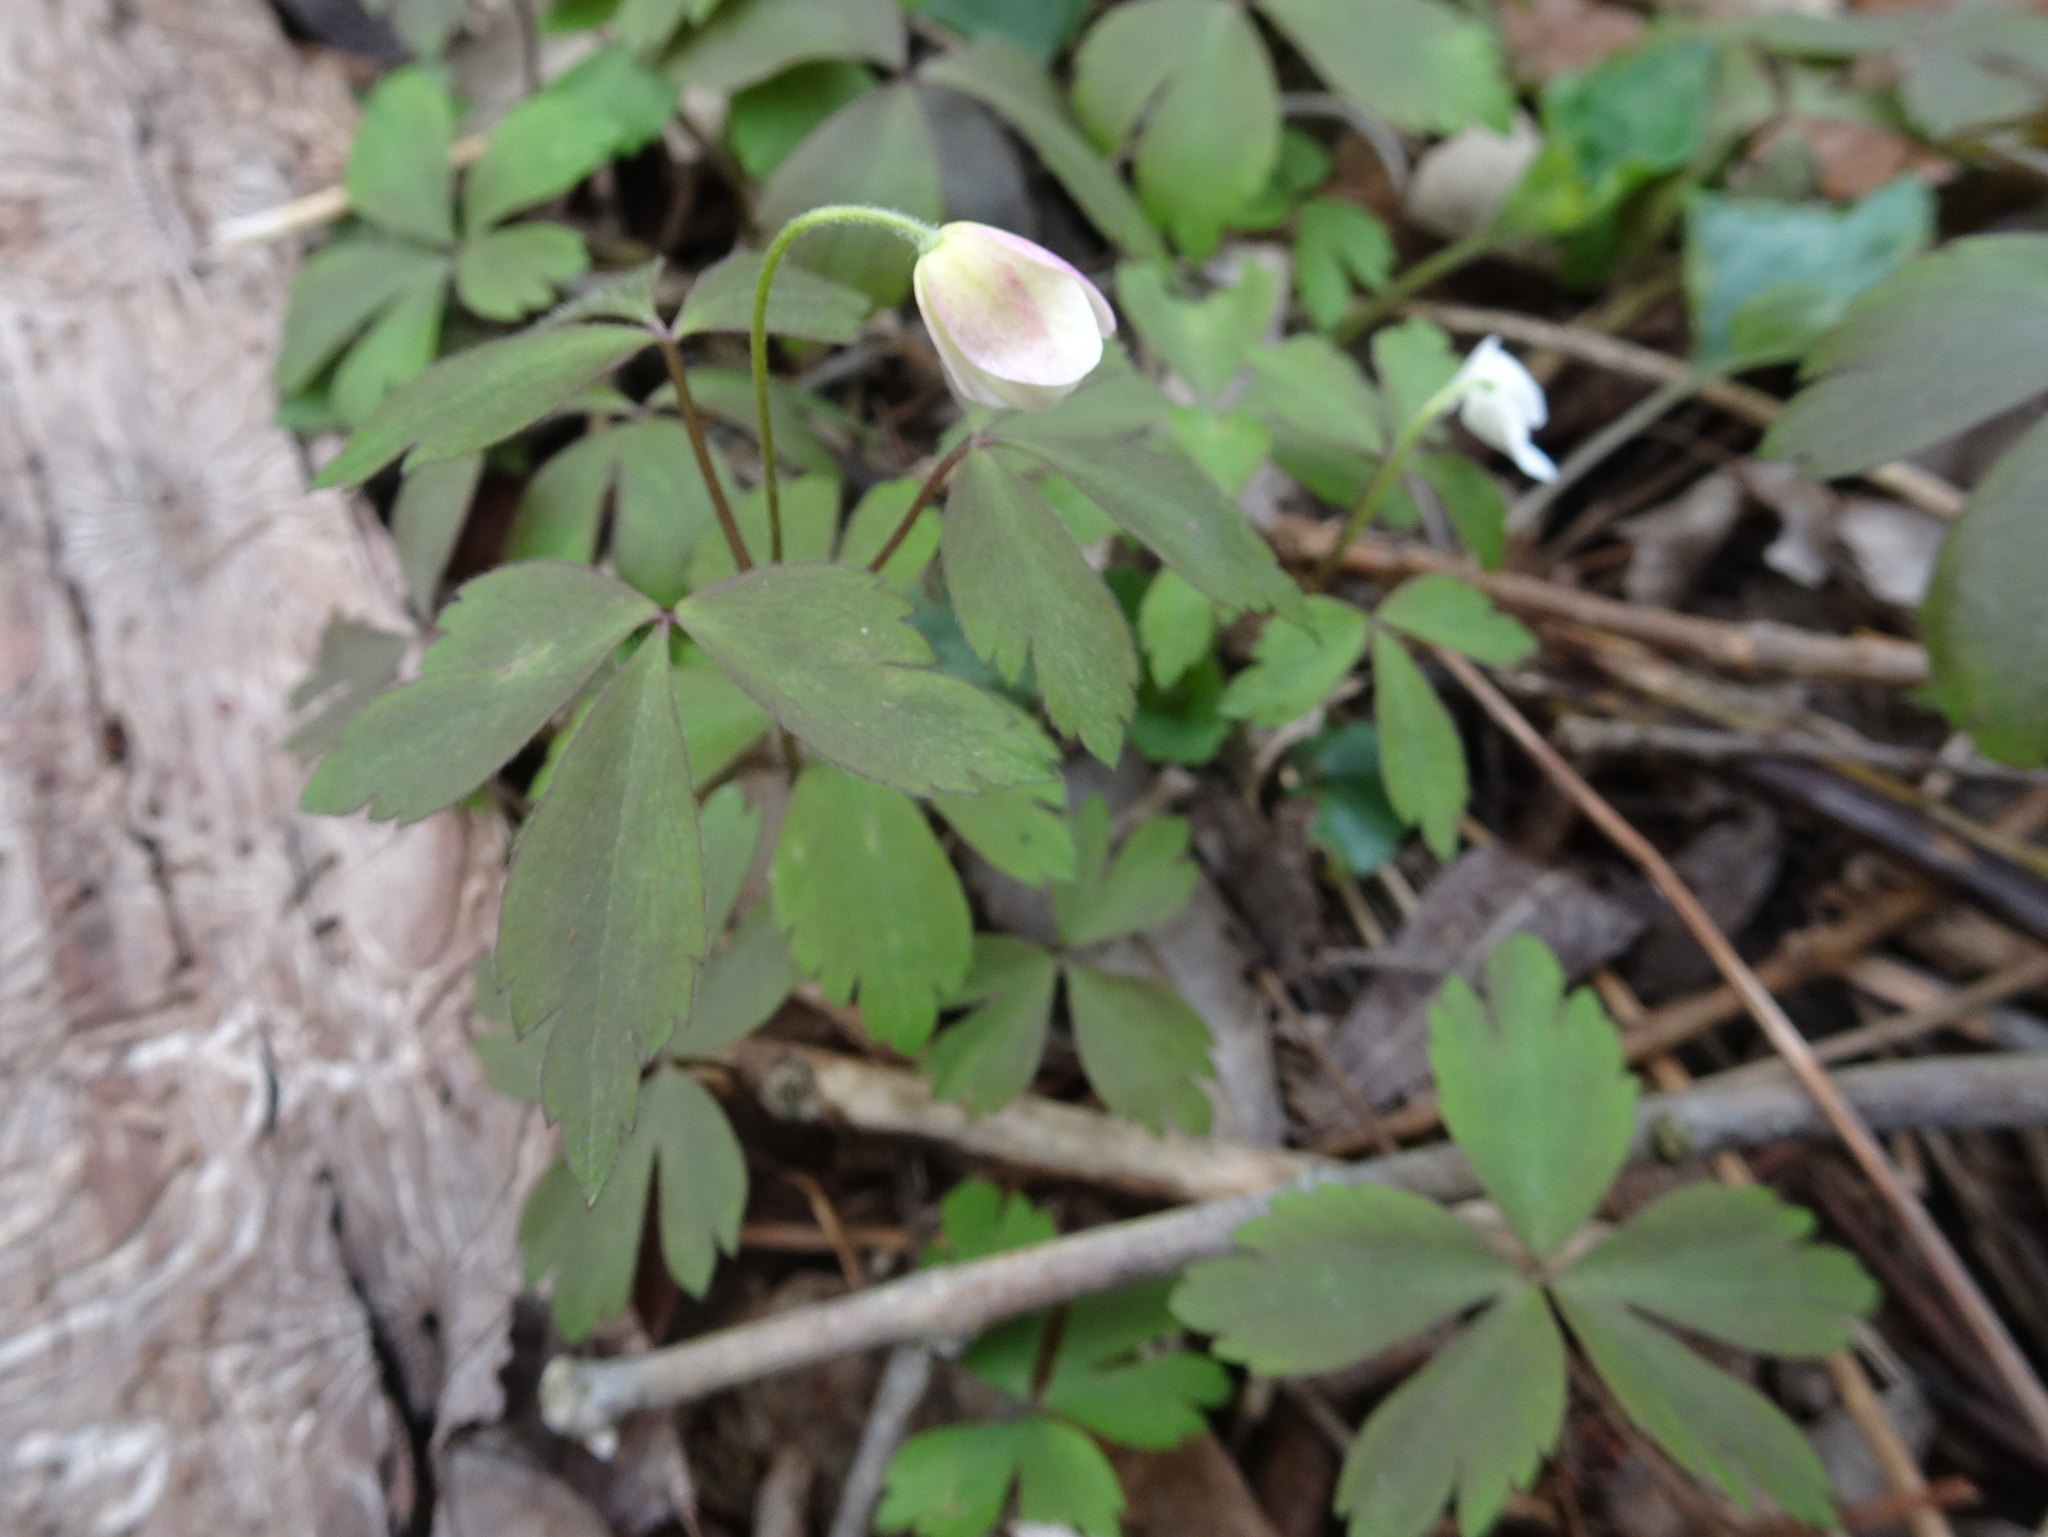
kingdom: Plantae
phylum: Tracheophyta
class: Magnoliopsida
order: Ranunculales
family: Ranunculaceae
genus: Anemone
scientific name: Anemone quinquefolia
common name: Wood anemone
